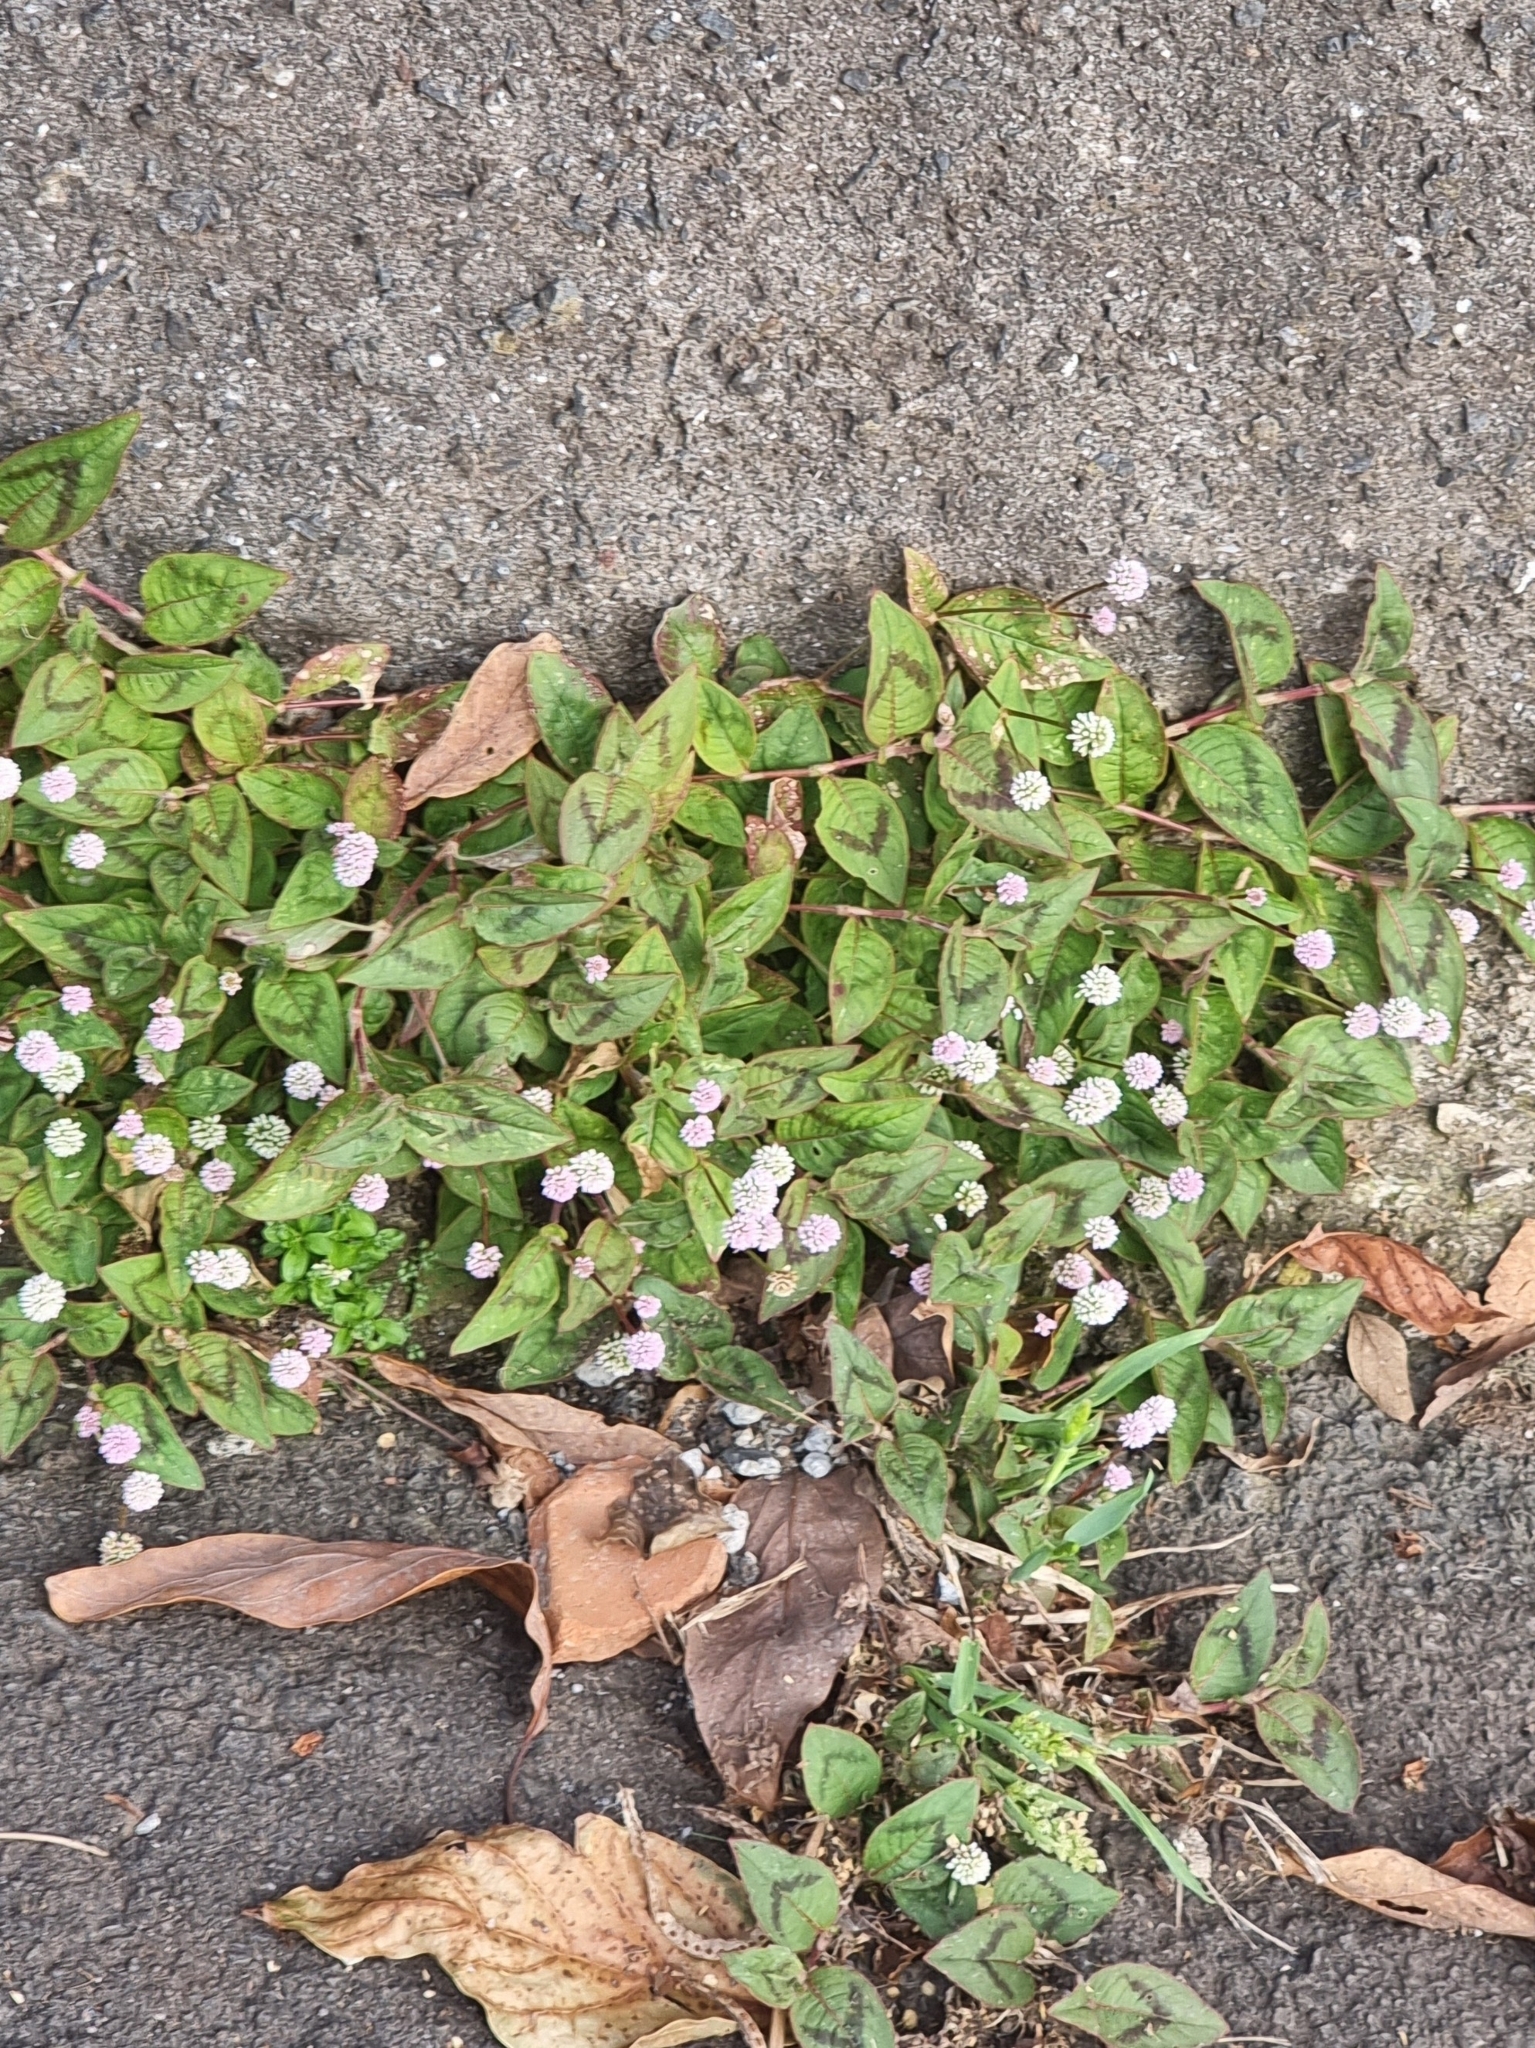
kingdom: Plantae
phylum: Tracheophyta
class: Magnoliopsida
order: Caryophyllales
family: Polygonaceae
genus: Persicaria
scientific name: Persicaria capitata
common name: Pinkhead smartweed
